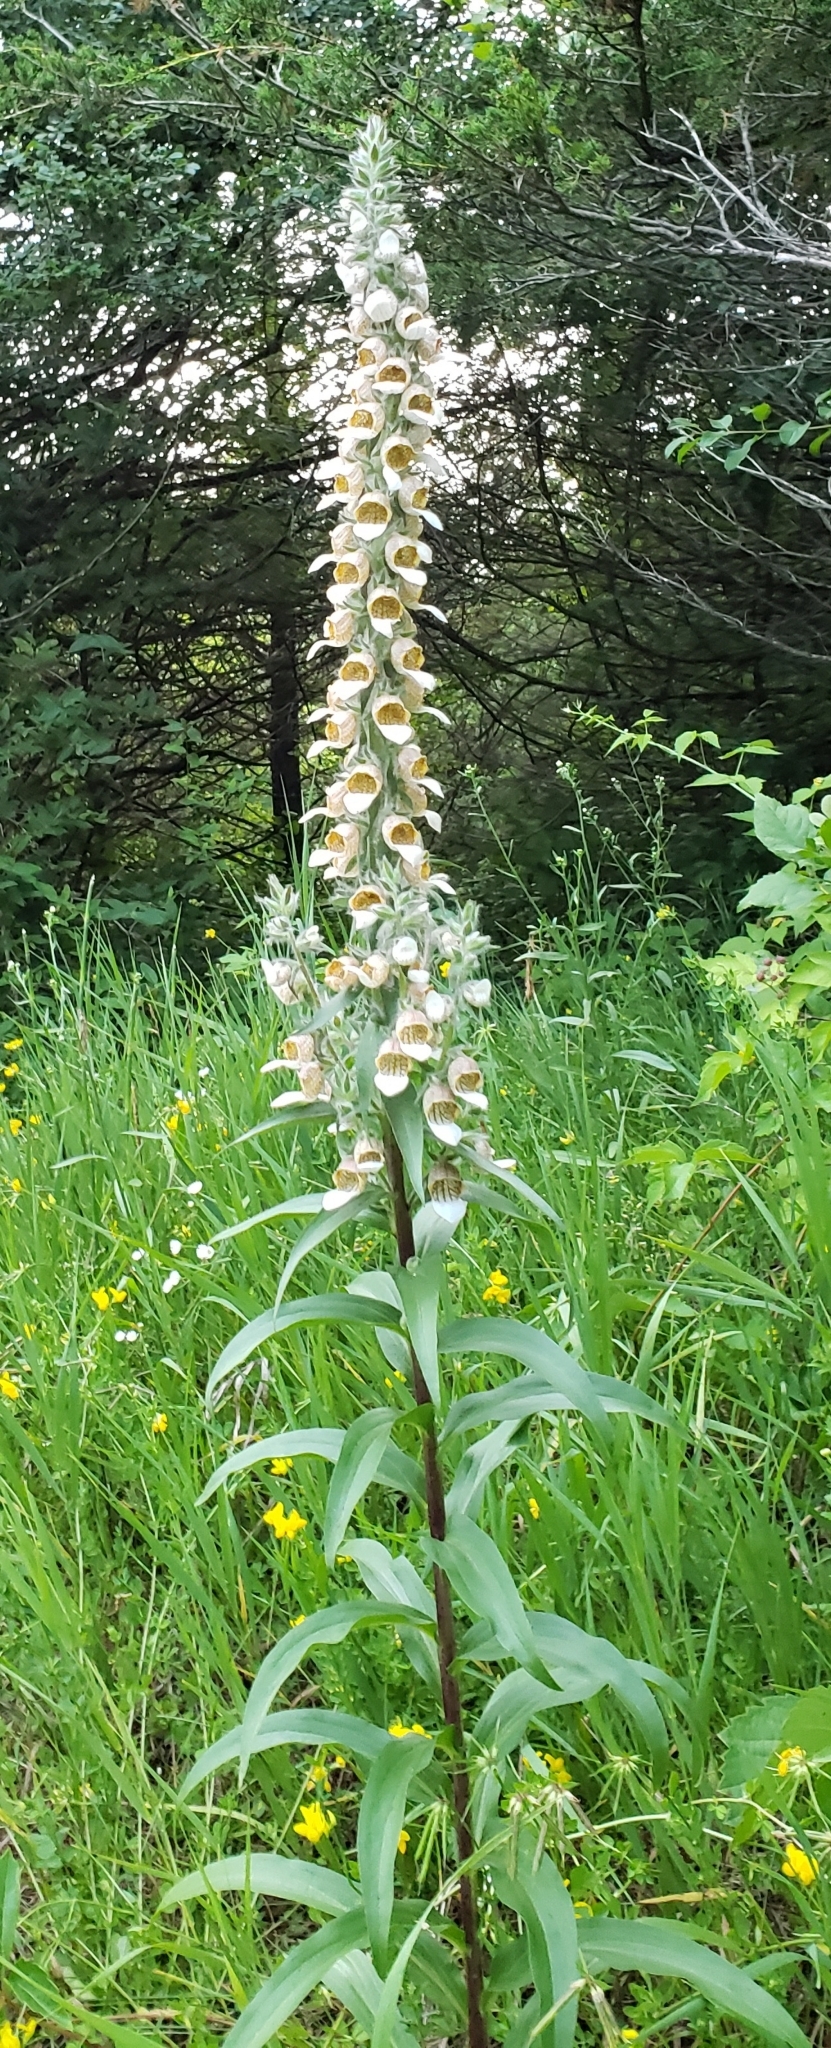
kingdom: Plantae
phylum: Tracheophyta
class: Magnoliopsida
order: Lamiales
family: Plantaginaceae
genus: Digitalis
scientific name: Digitalis lanata
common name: Grecian foxglove
